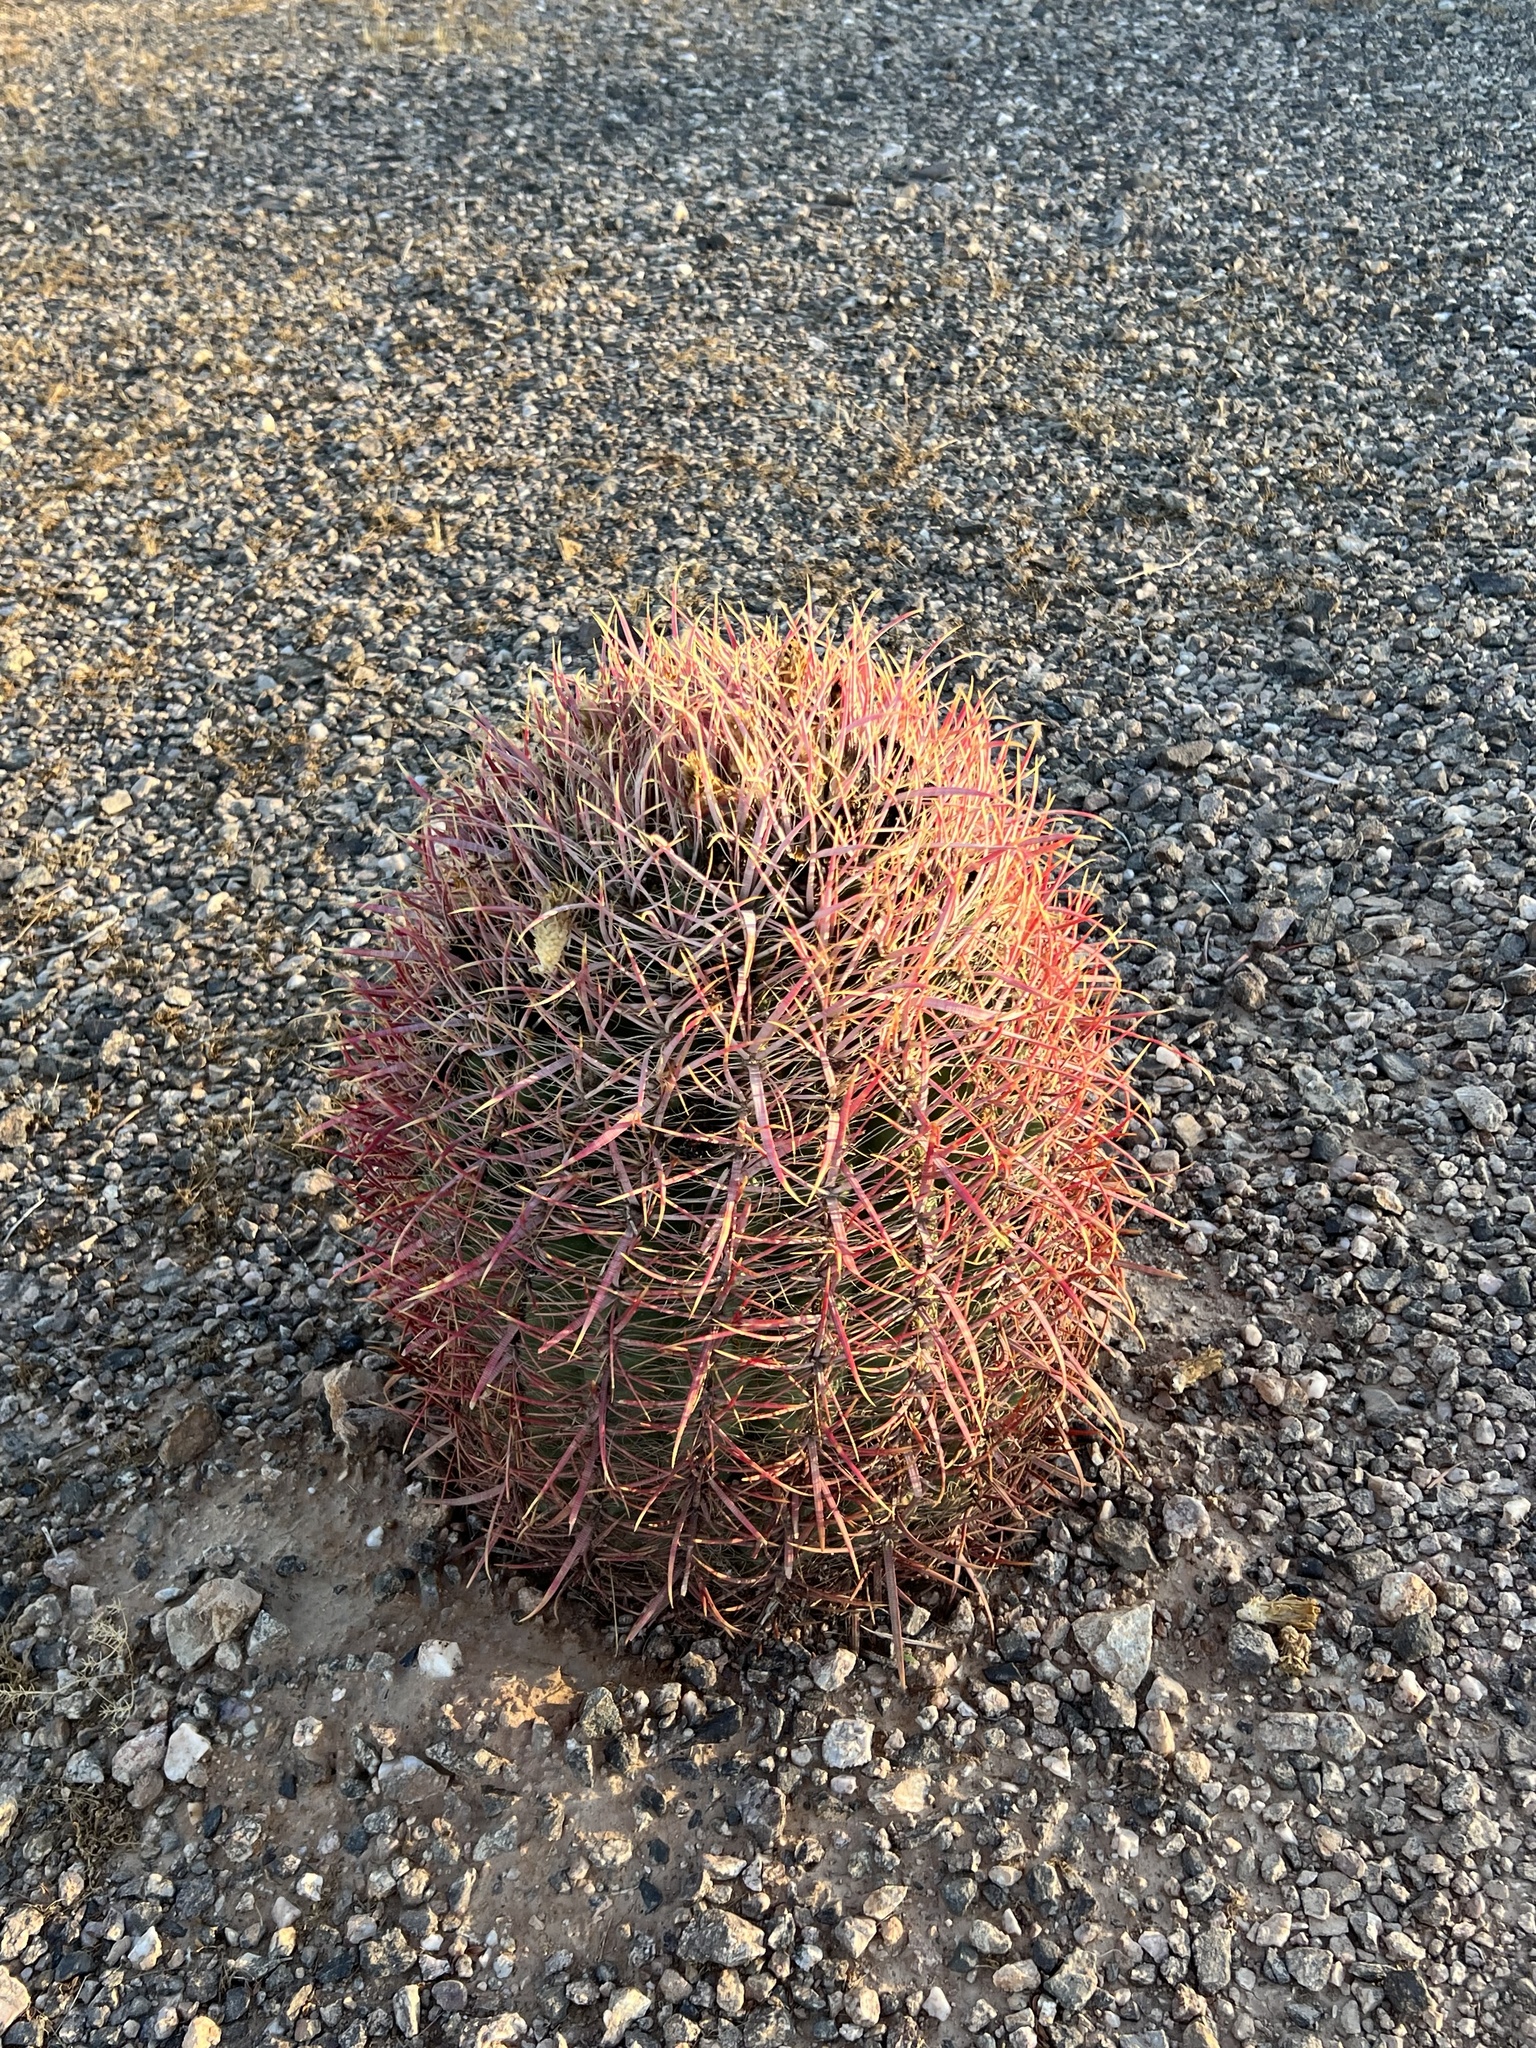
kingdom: Plantae
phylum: Tracheophyta
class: Magnoliopsida
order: Caryophyllales
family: Cactaceae
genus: Ferocactus
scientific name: Ferocactus cylindraceus
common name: California barrel cactus
